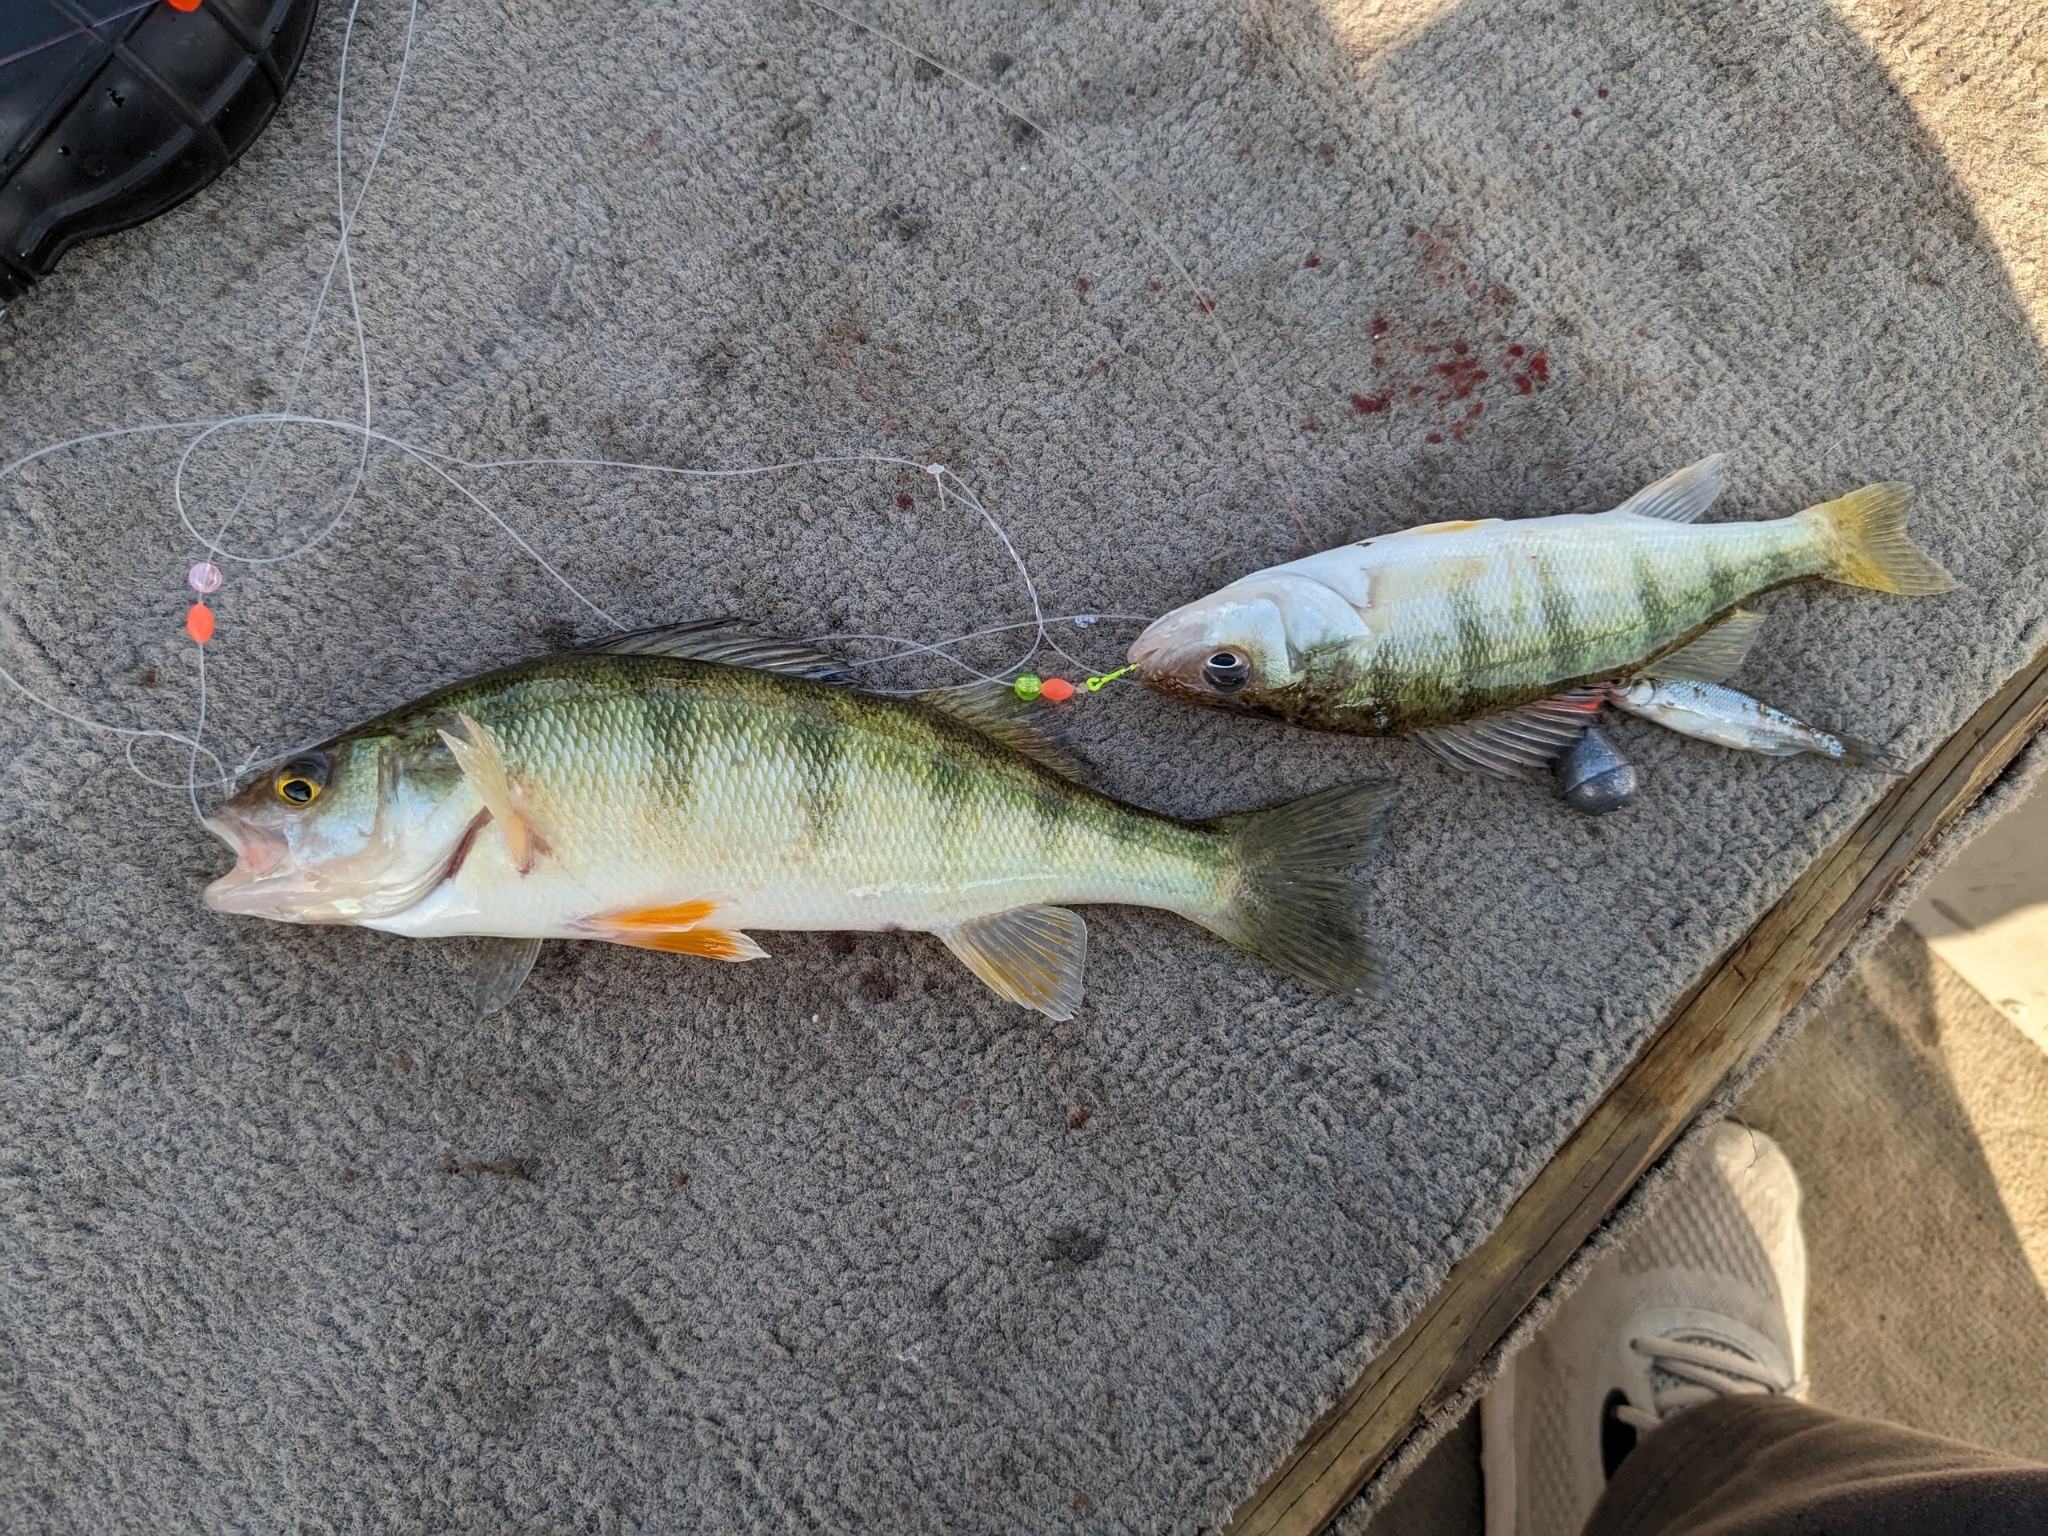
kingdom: Animalia
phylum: Chordata
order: Perciformes
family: Percidae
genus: Perca
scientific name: Perca flavescens
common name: Yellow perch
